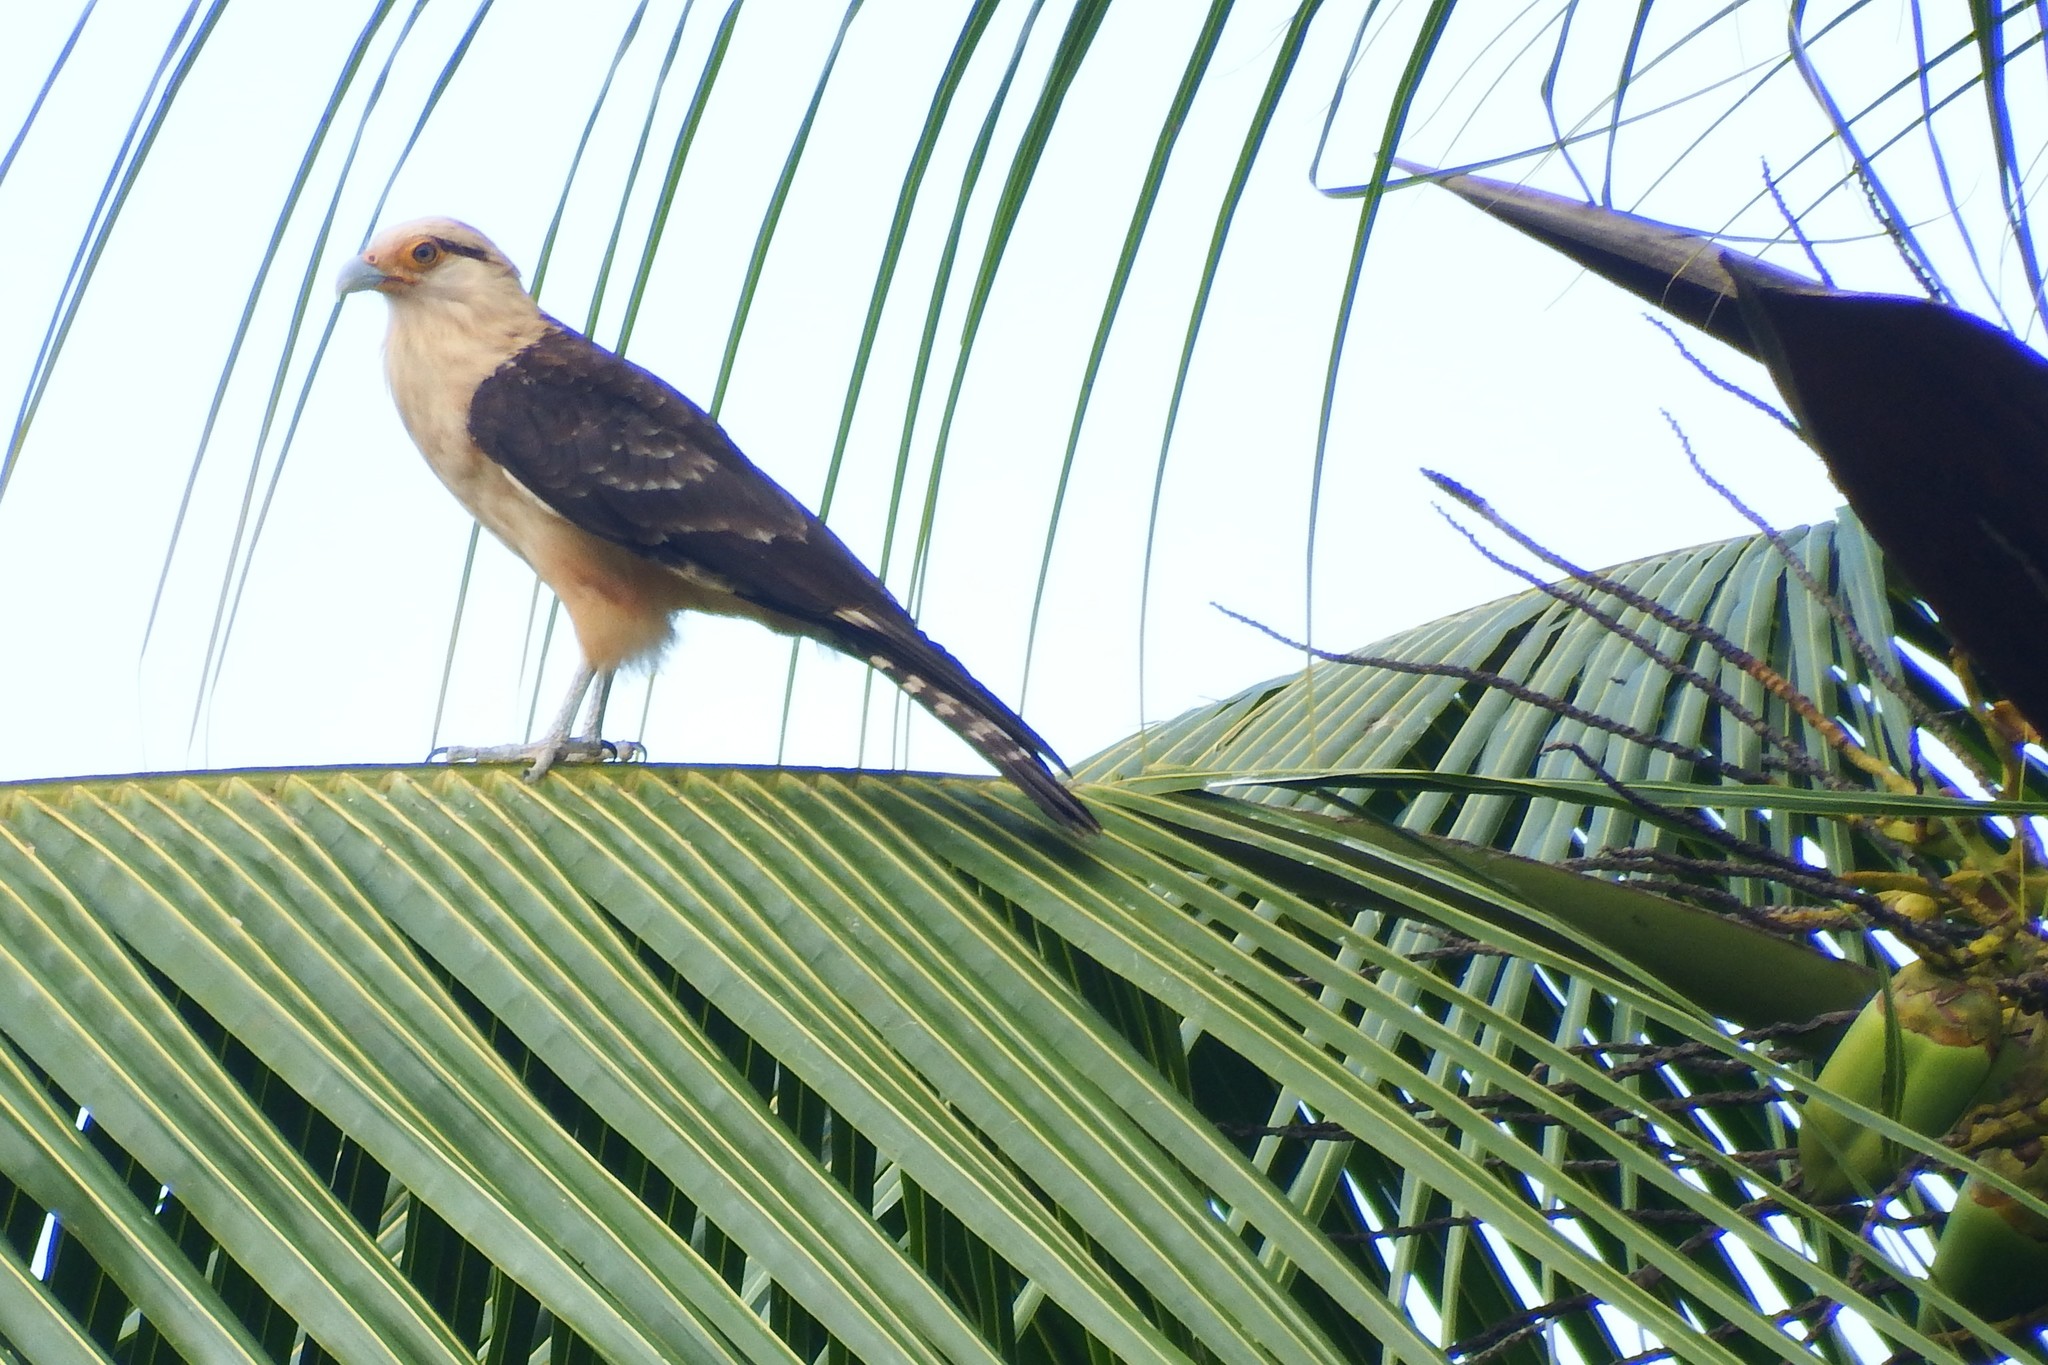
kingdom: Animalia
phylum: Chordata
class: Aves
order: Falconiformes
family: Falconidae
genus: Daptrius
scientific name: Daptrius
